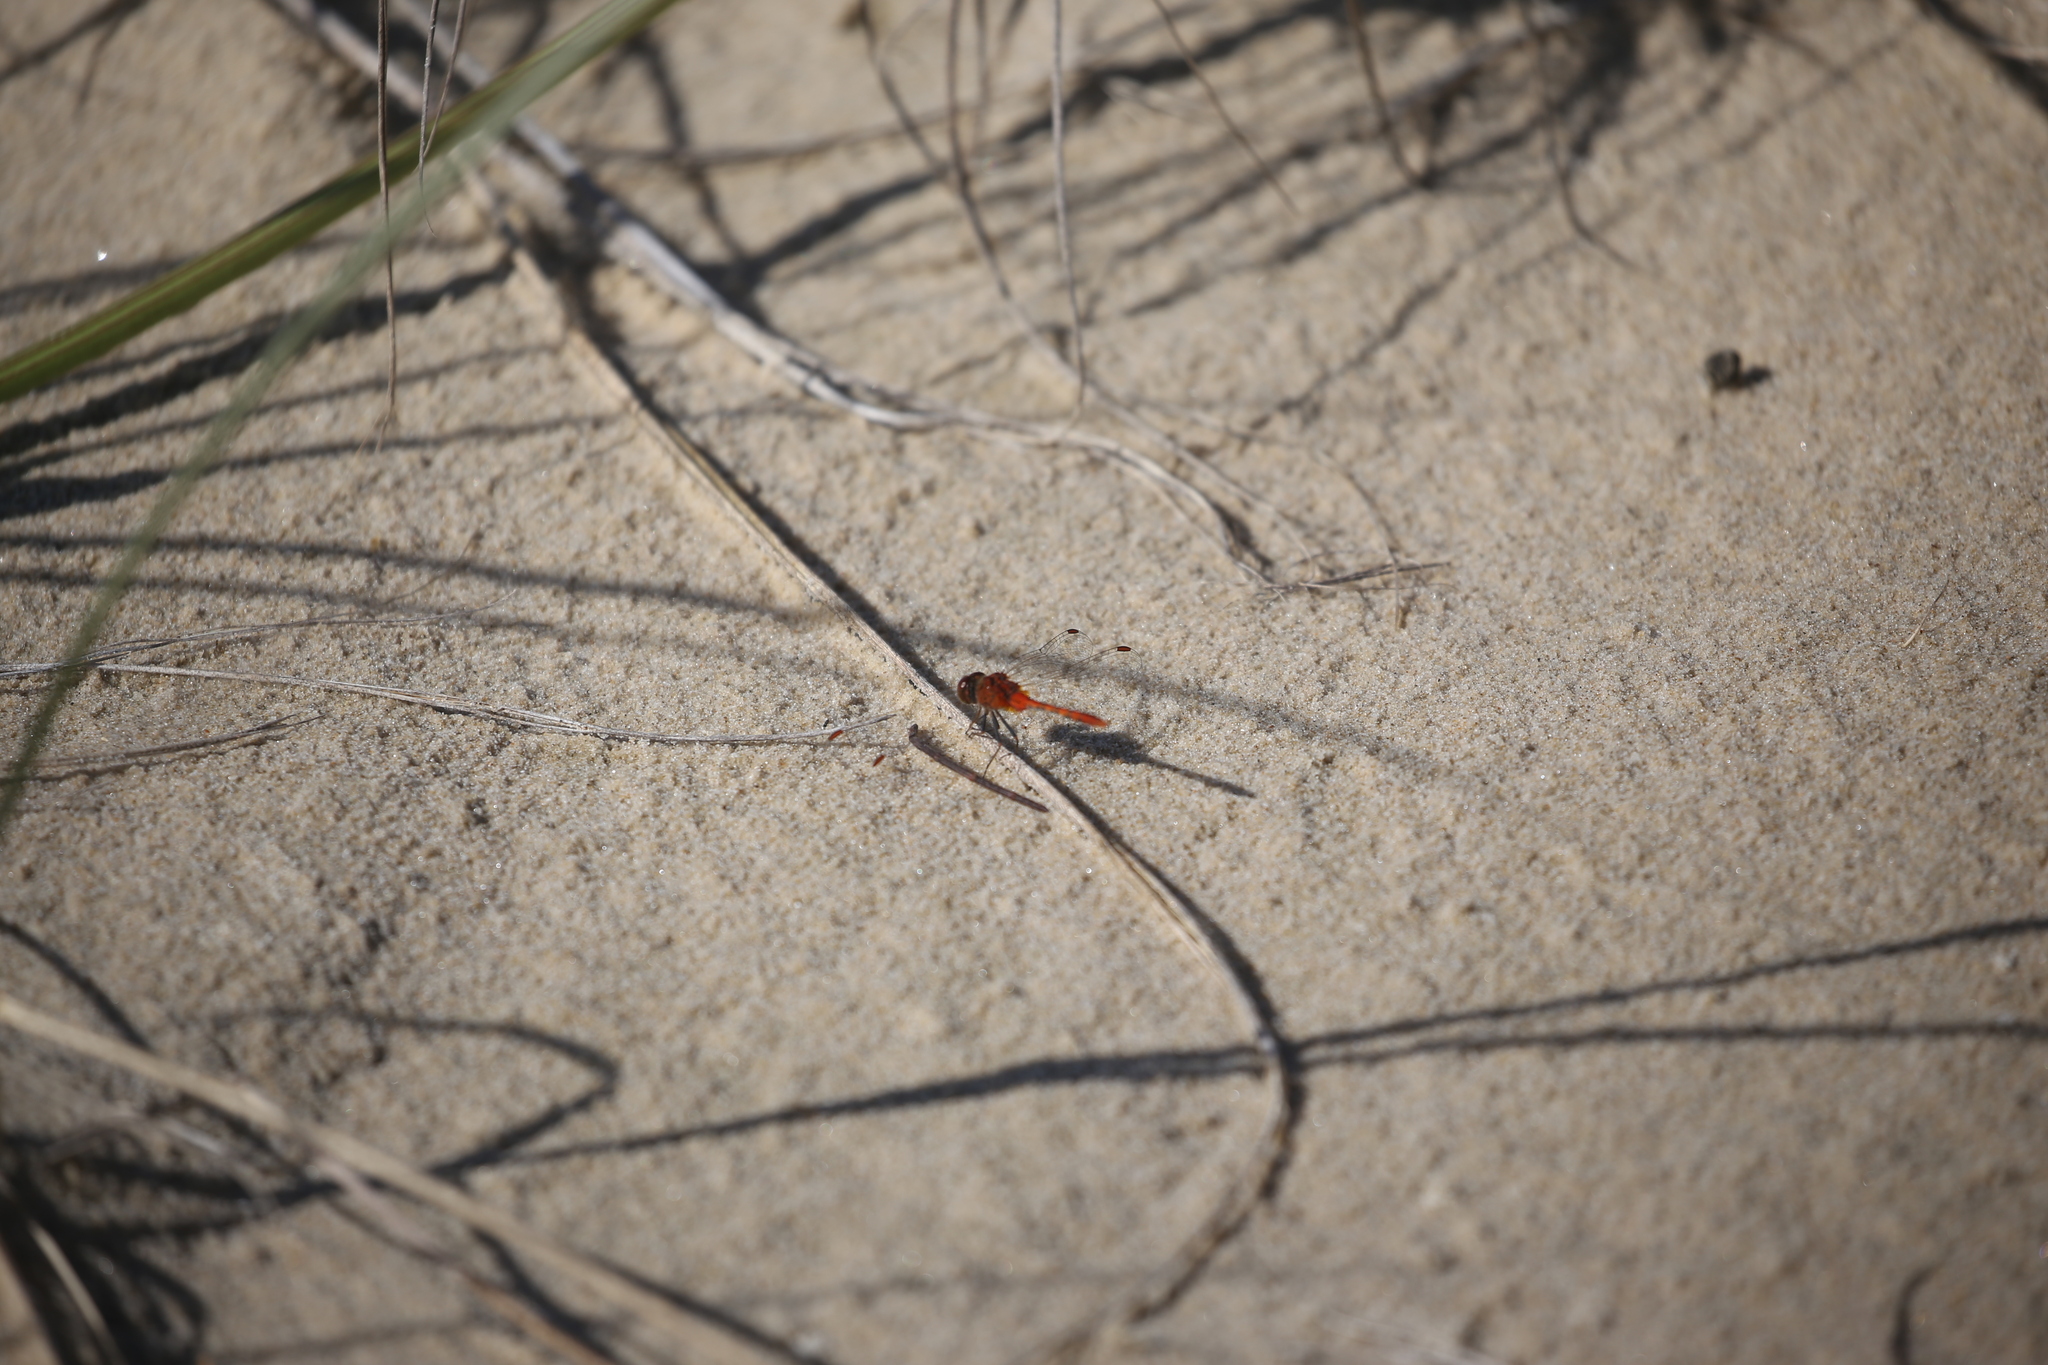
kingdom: Animalia
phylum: Arthropoda
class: Insecta
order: Odonata
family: Libellulidae
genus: Diplacodes
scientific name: Diplacodes bipunctata
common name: Red percher dragonfly
